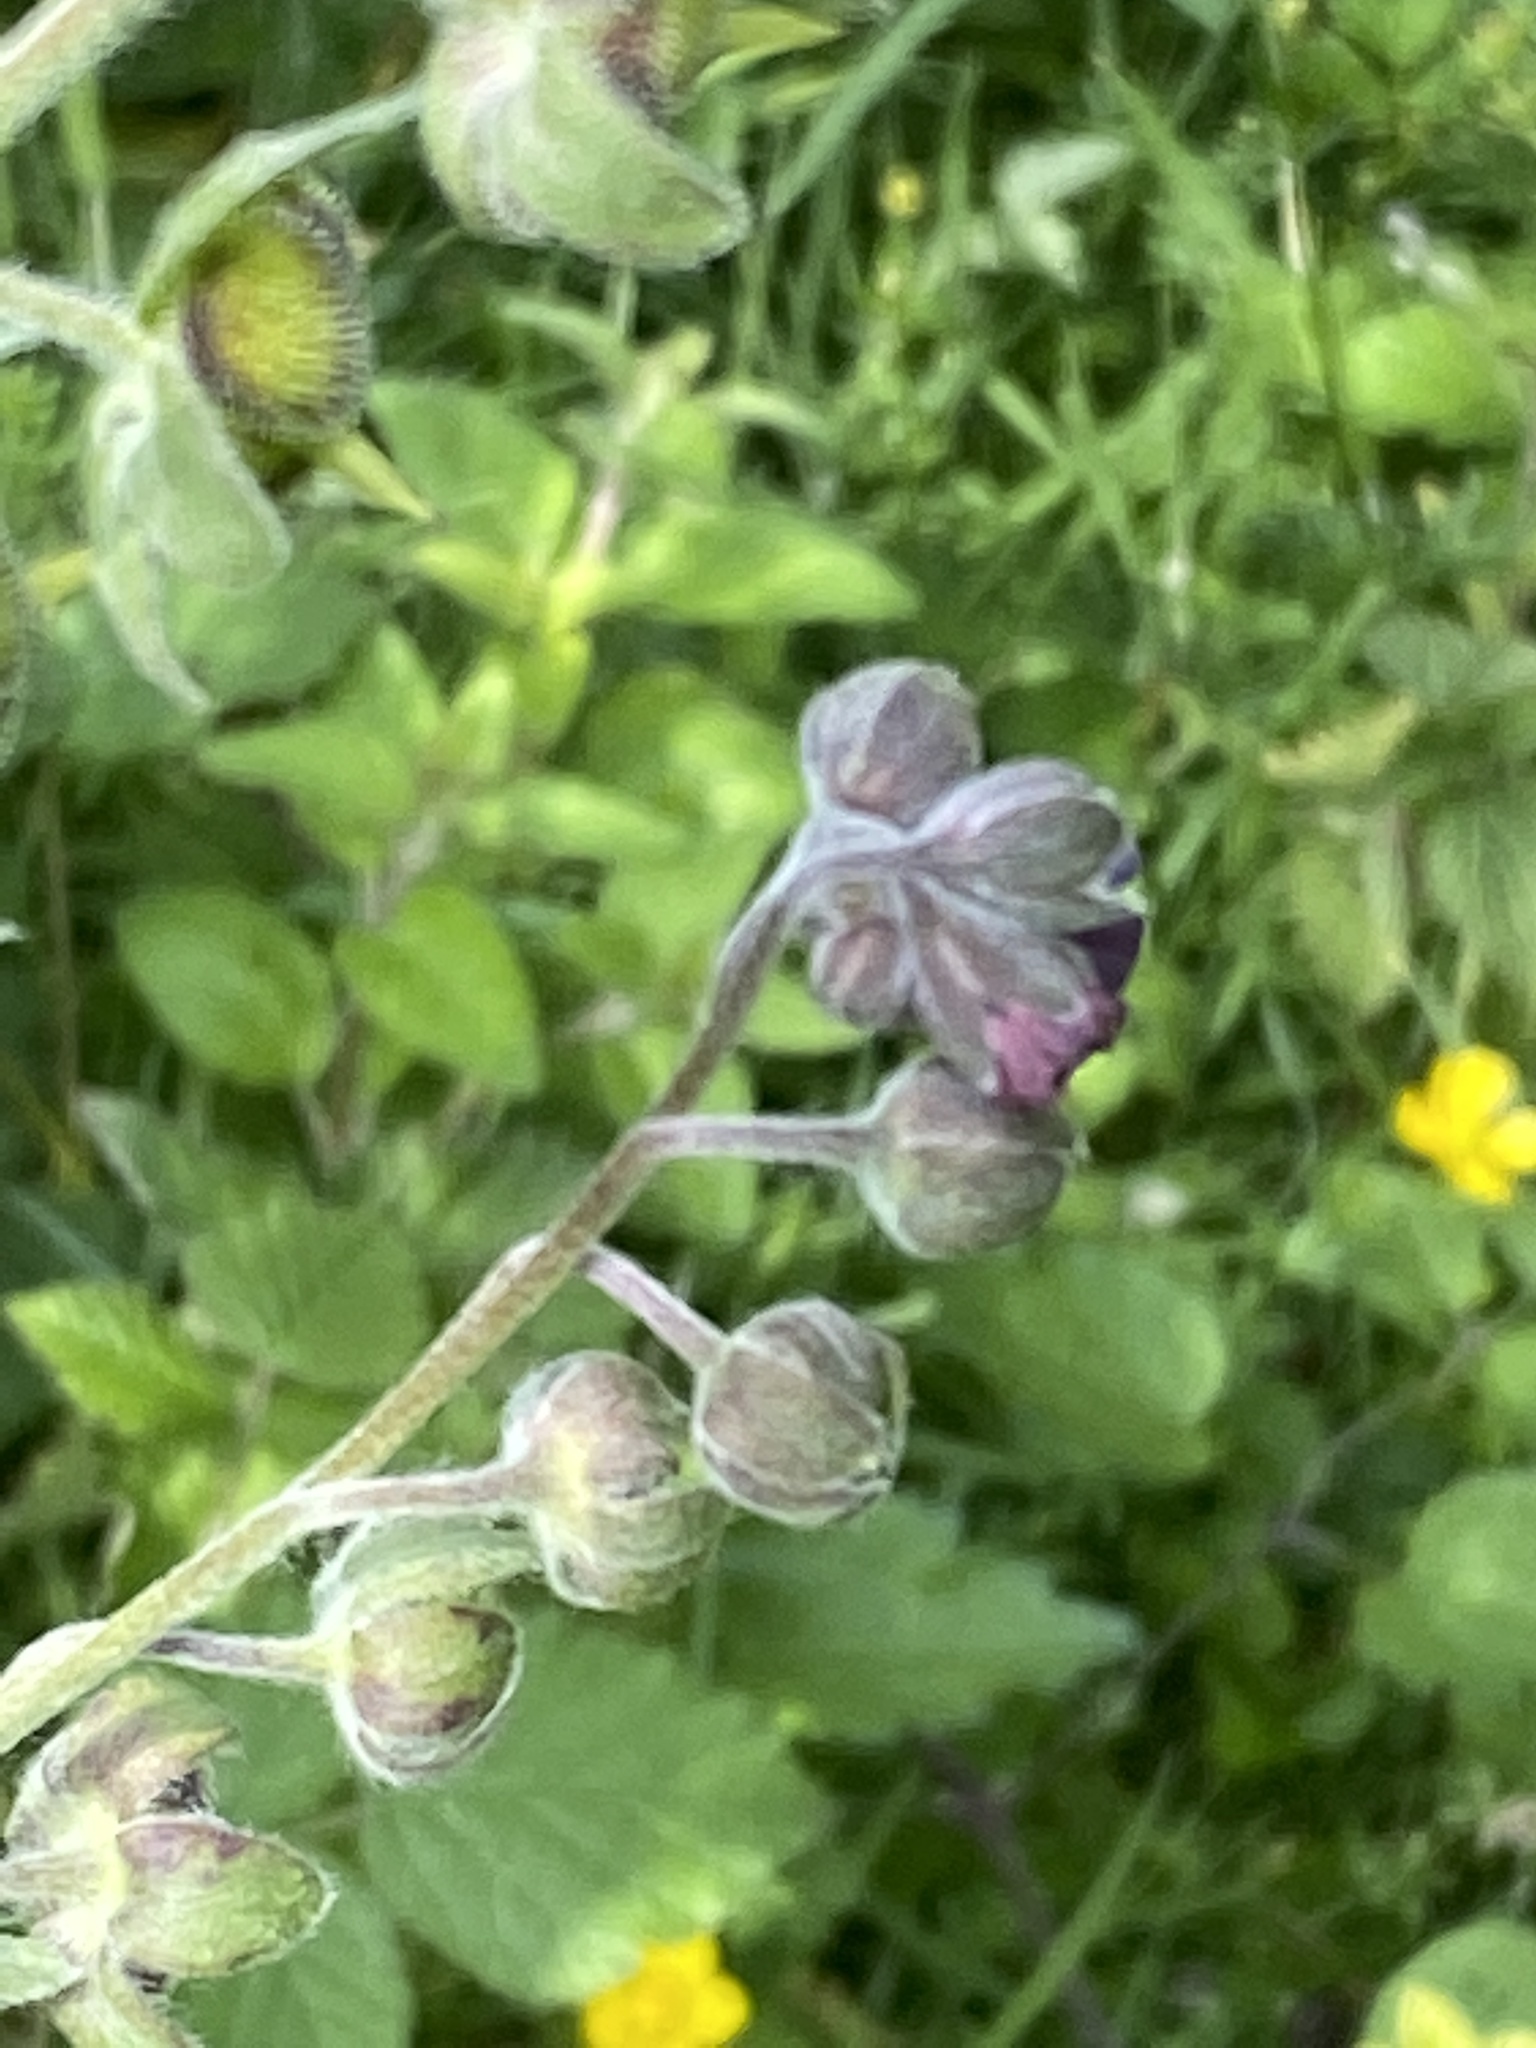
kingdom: Plantae
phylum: Tracheophyta
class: Magnoliopsida
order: Boraginales
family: Boraginaceae
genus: Cynoglossum
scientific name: Cynoglossum officinale
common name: Hound's-tongue
